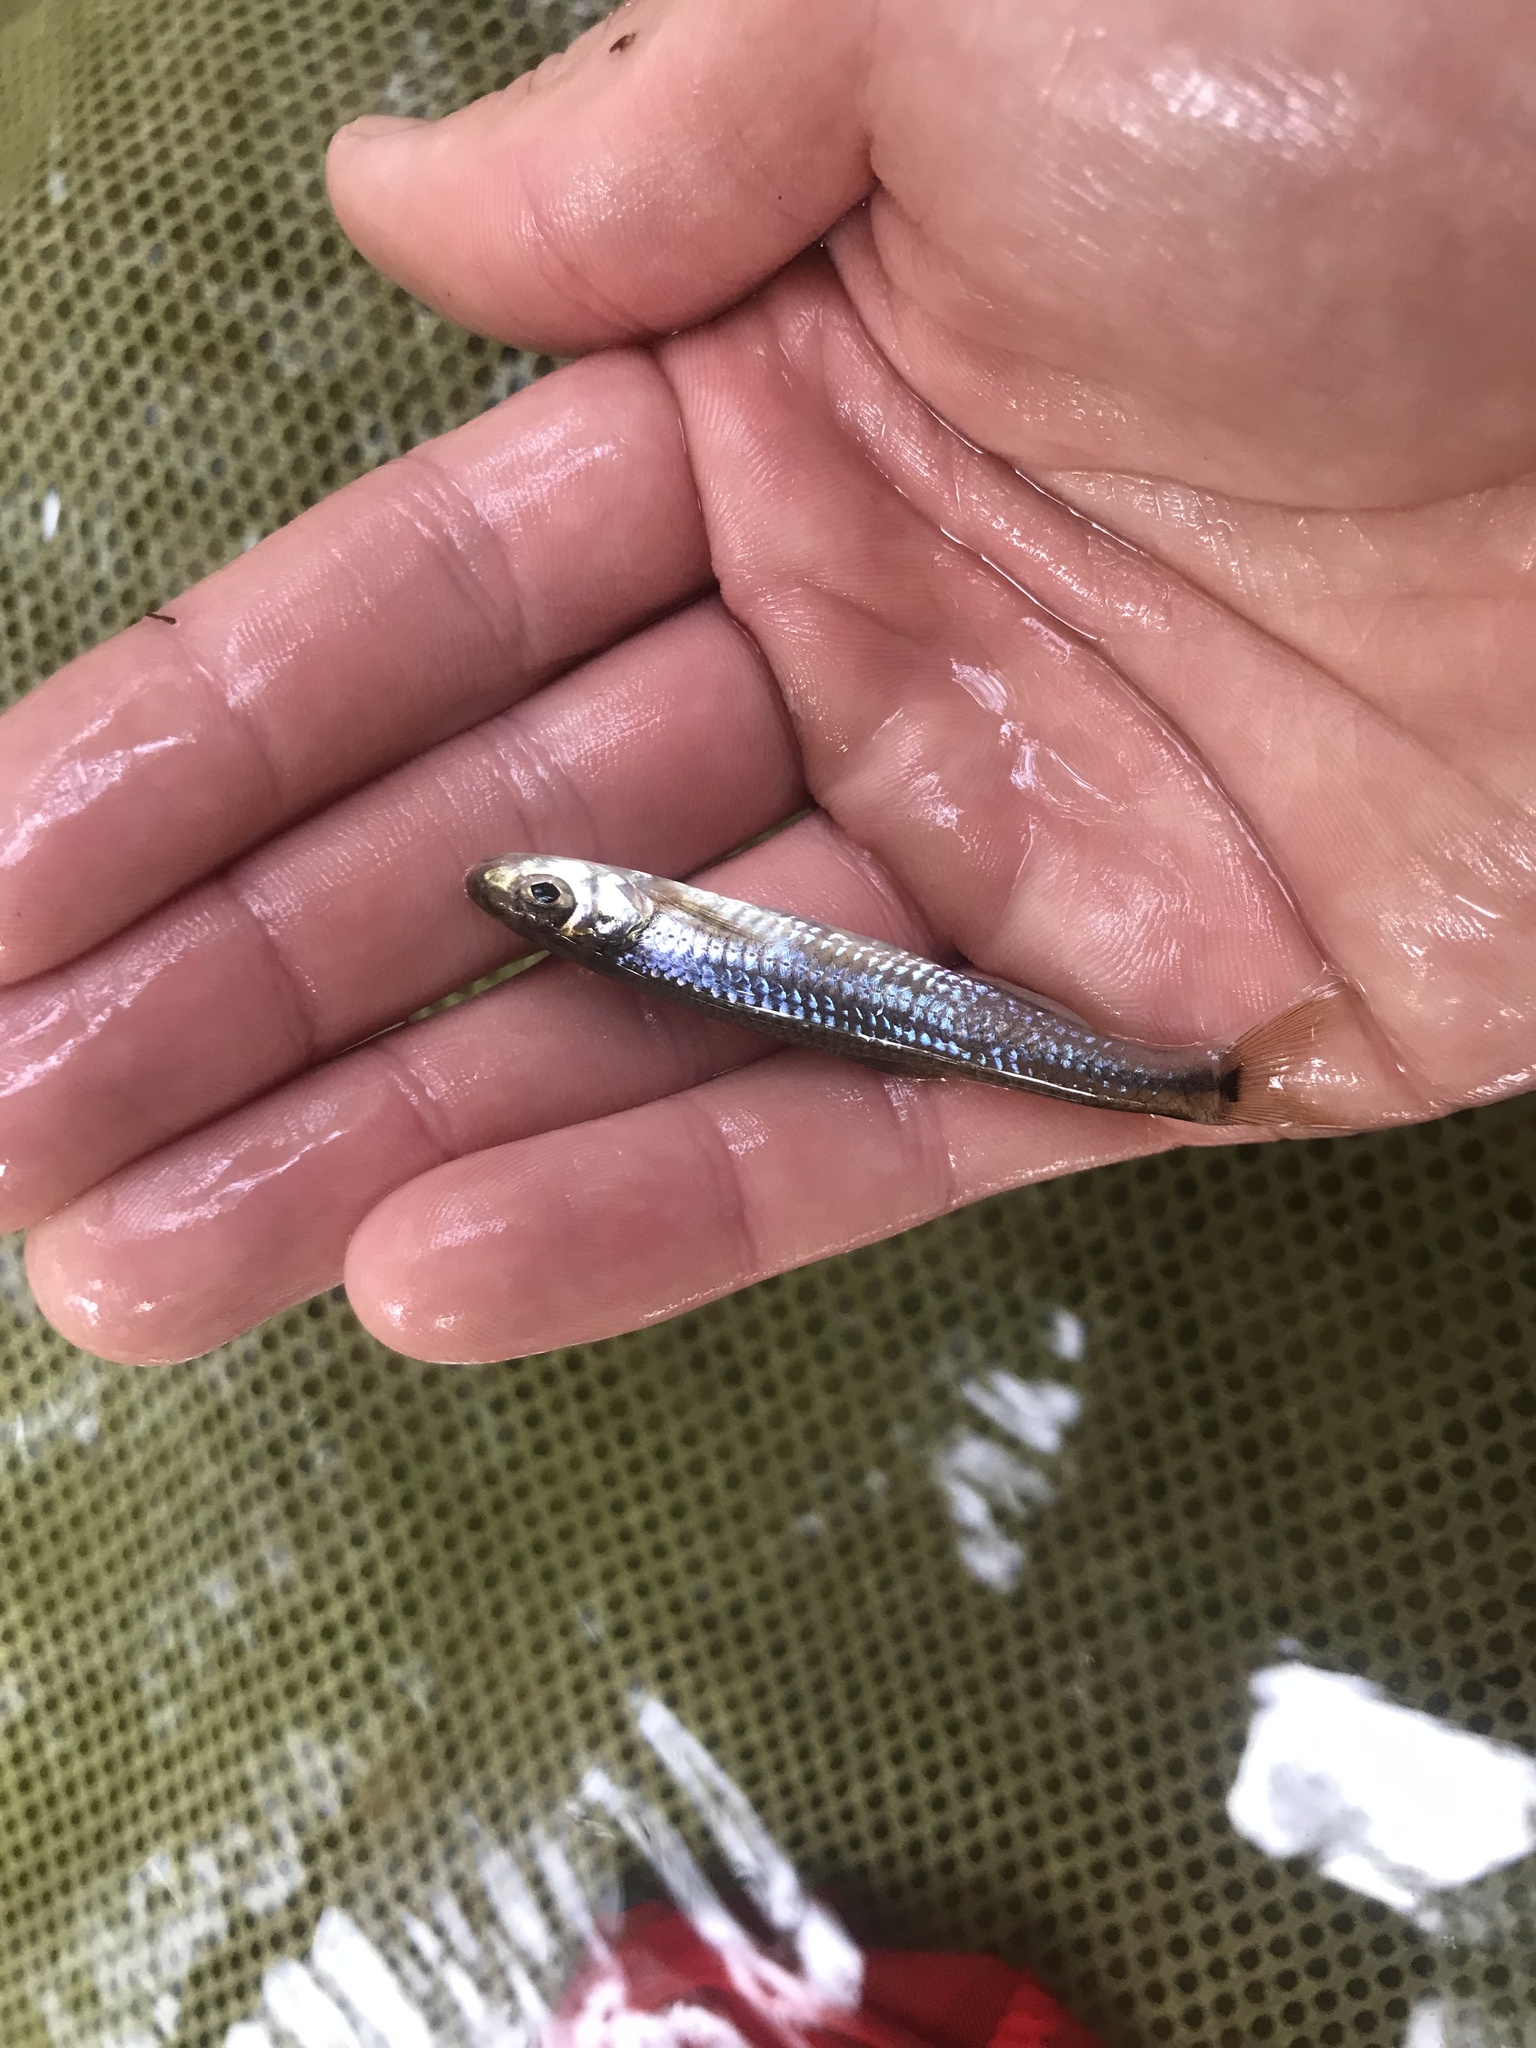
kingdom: Animalia
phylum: Chordata
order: Cypriniformes
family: Cyprinidae
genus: Notropis
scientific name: Notropis
